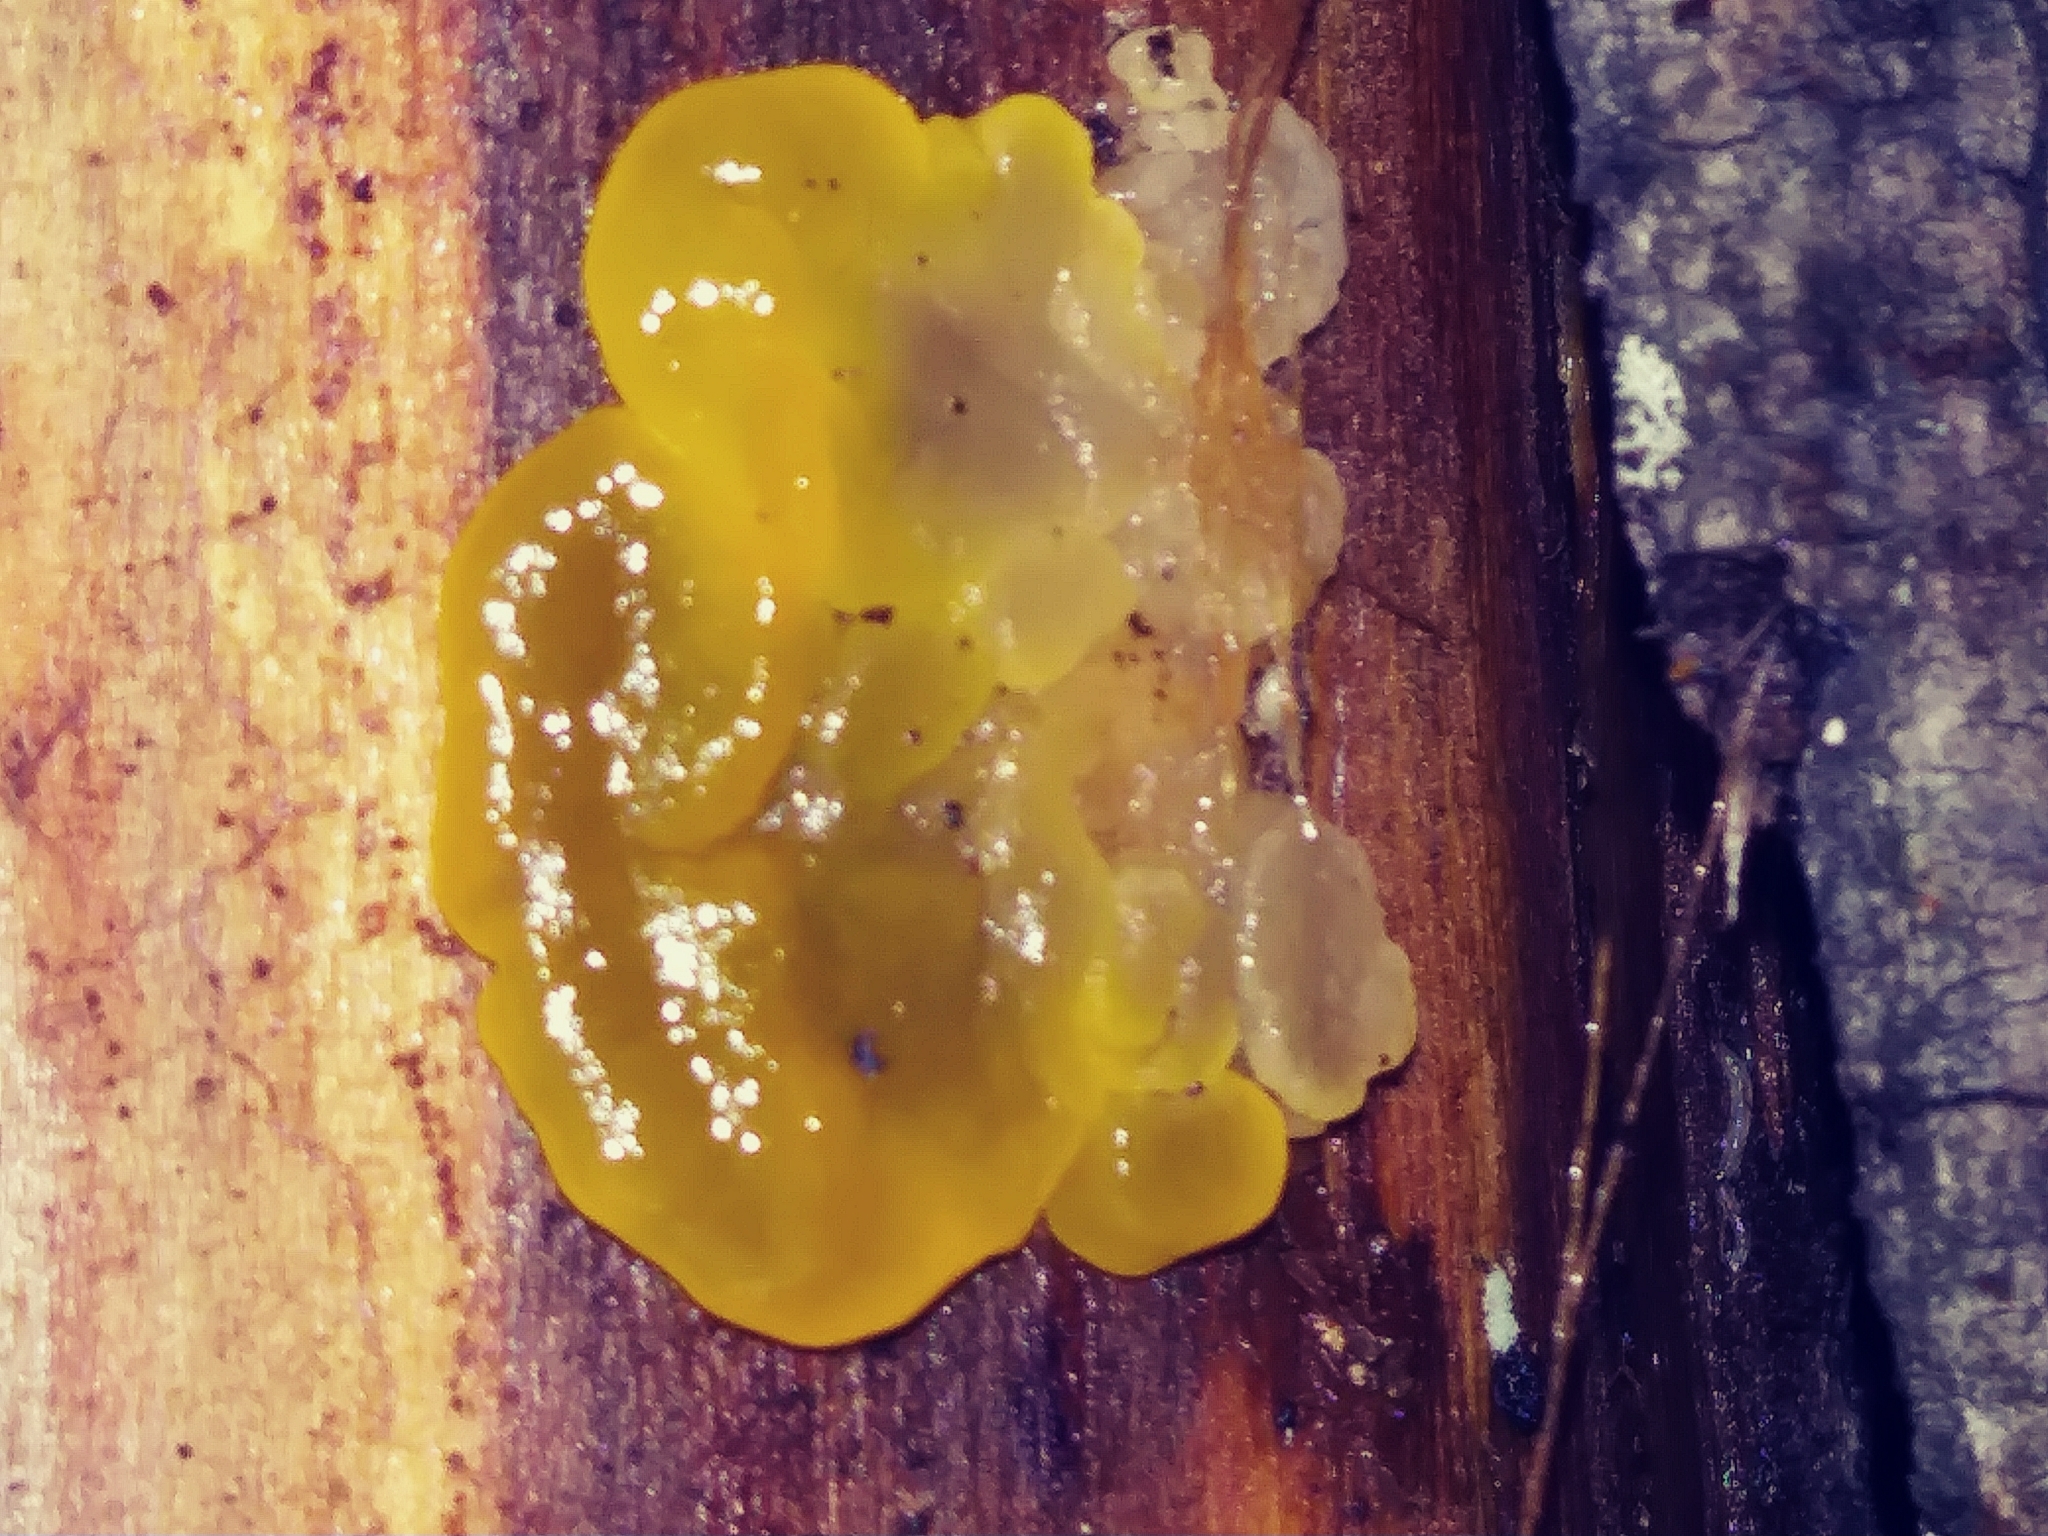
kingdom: Fungi
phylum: Basidiomycota
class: Tremellomycetes
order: Tremellales
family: Tremellaceae
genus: Tremella
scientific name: Tremella mesenterica
